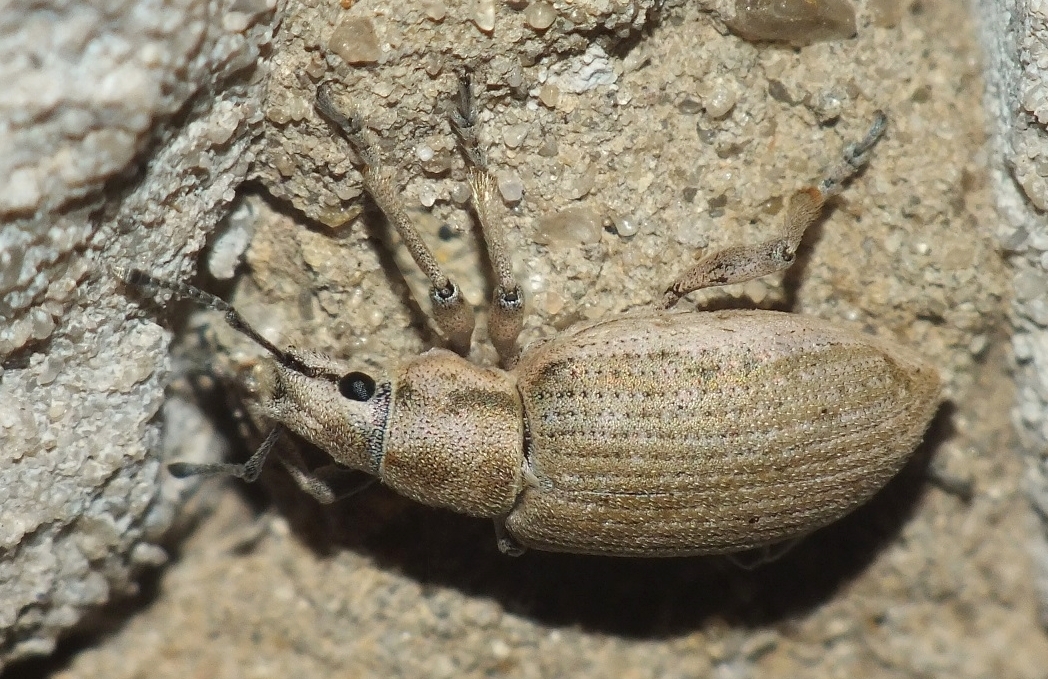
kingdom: Animalia
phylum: Arthropoda
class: Insecta
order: Coleoptera
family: Curculionidae
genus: Megamecus
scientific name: Megamecus argentatus
